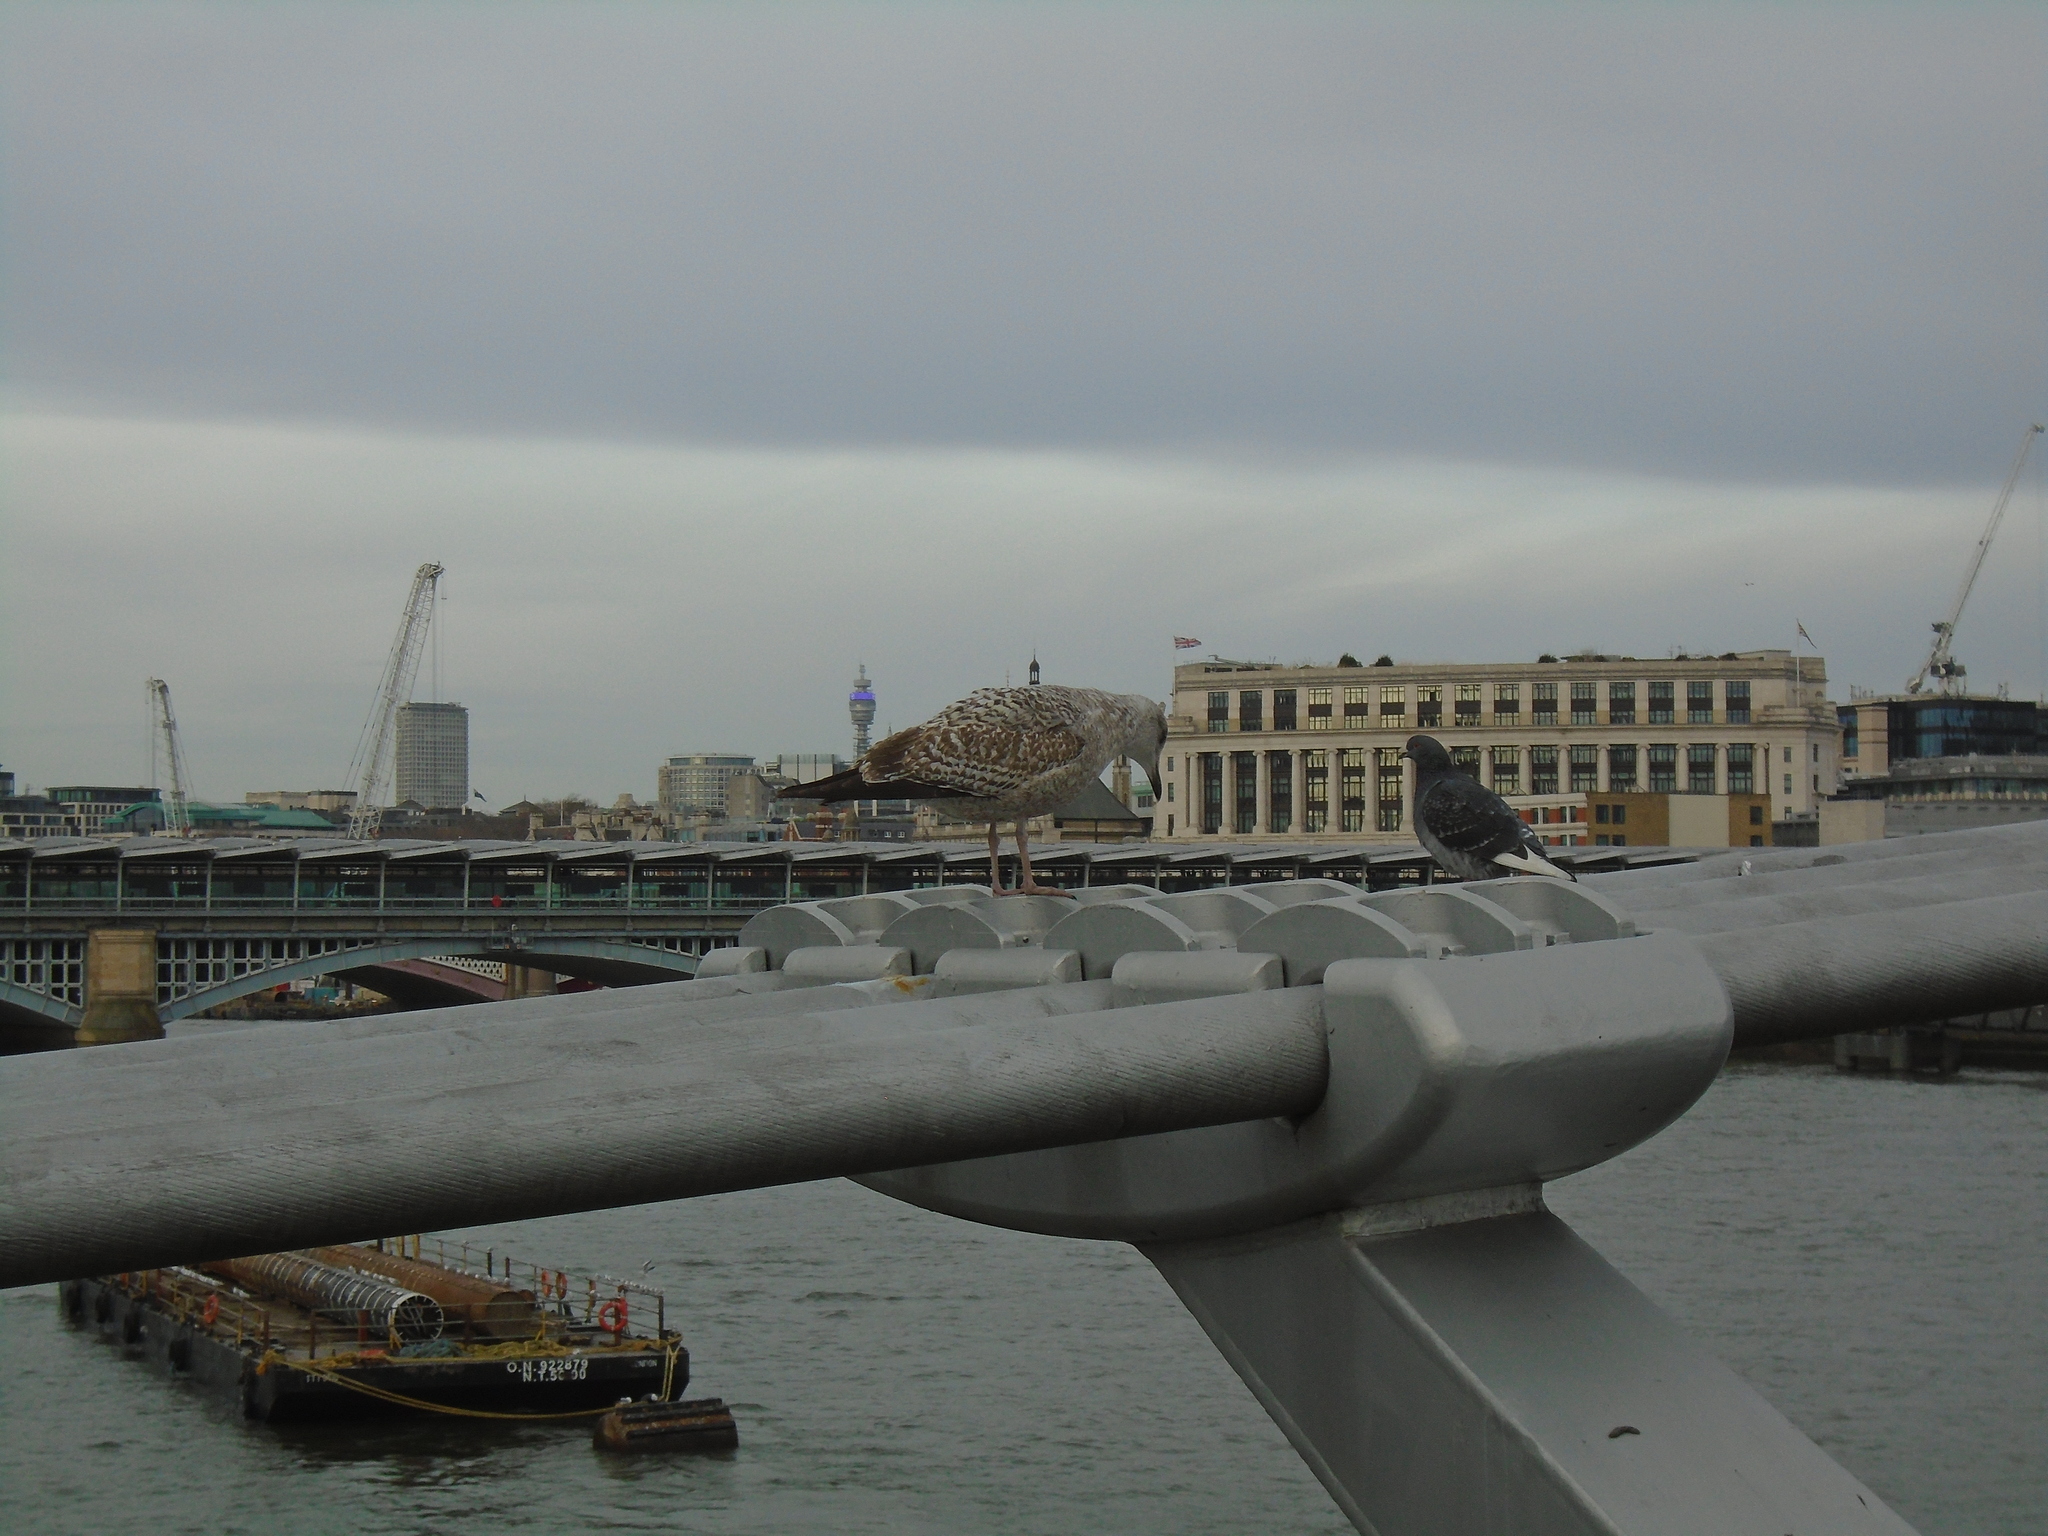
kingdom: Animalia
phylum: Chordata
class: Aves
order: Charadriiformes
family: Laridae
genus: Larus
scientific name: Larus argentatus
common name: Herring gull
